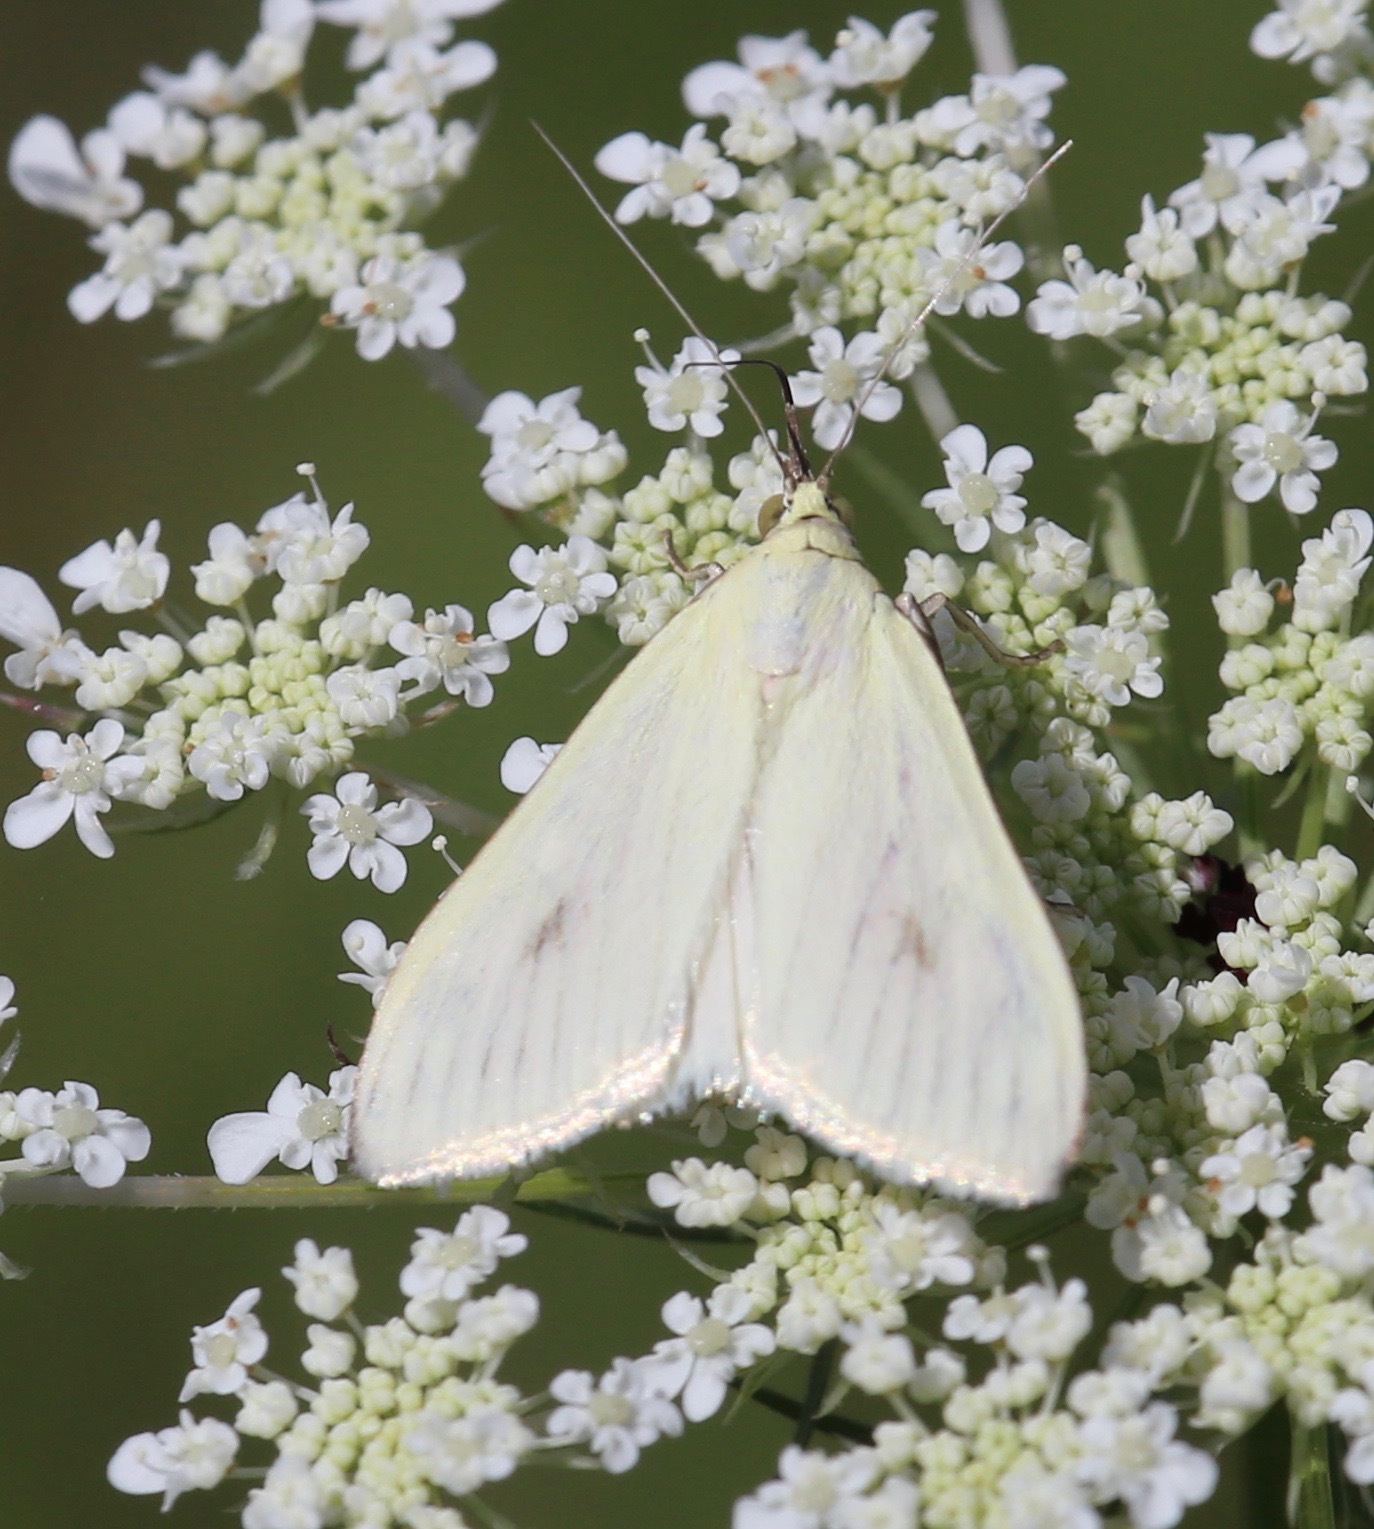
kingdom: Animalia
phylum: Arthropoda
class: Insecta
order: Lepidoptera
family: Crambidae
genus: Sitochroa
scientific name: Sitochroa palealis
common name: Greenish-yellow sitochroa moth
